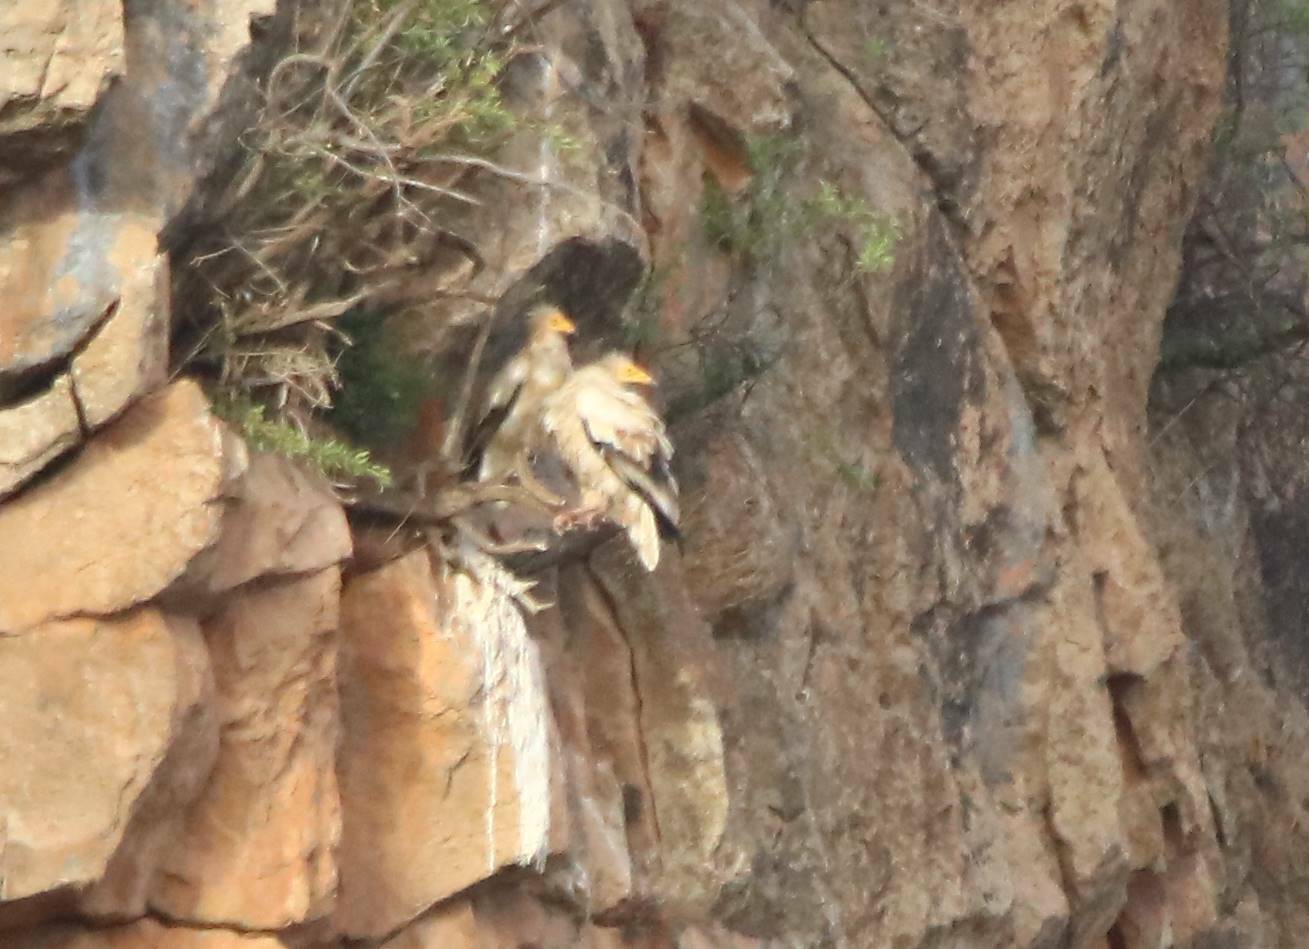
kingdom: Animalia
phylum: Chordata
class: Aves
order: Accipitriformes
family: Accipitridae
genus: Neophron
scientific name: Neophron percnopterus
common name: Egyptian vulture
